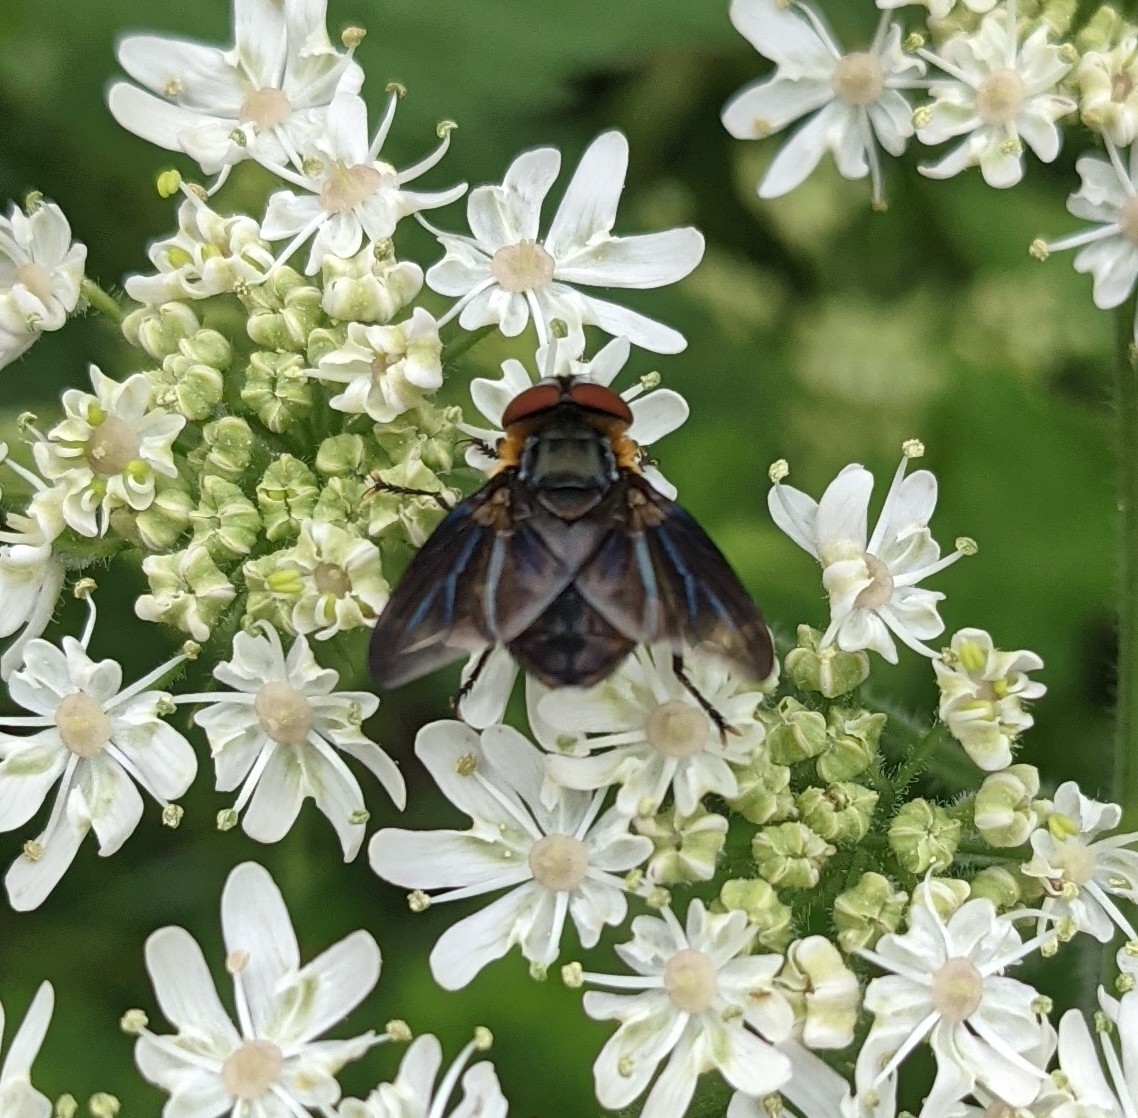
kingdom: Animalia
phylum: Arthropoda
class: Insecta
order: Diptera
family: Tachinidae
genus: Phasia
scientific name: Phasia hemiptera
